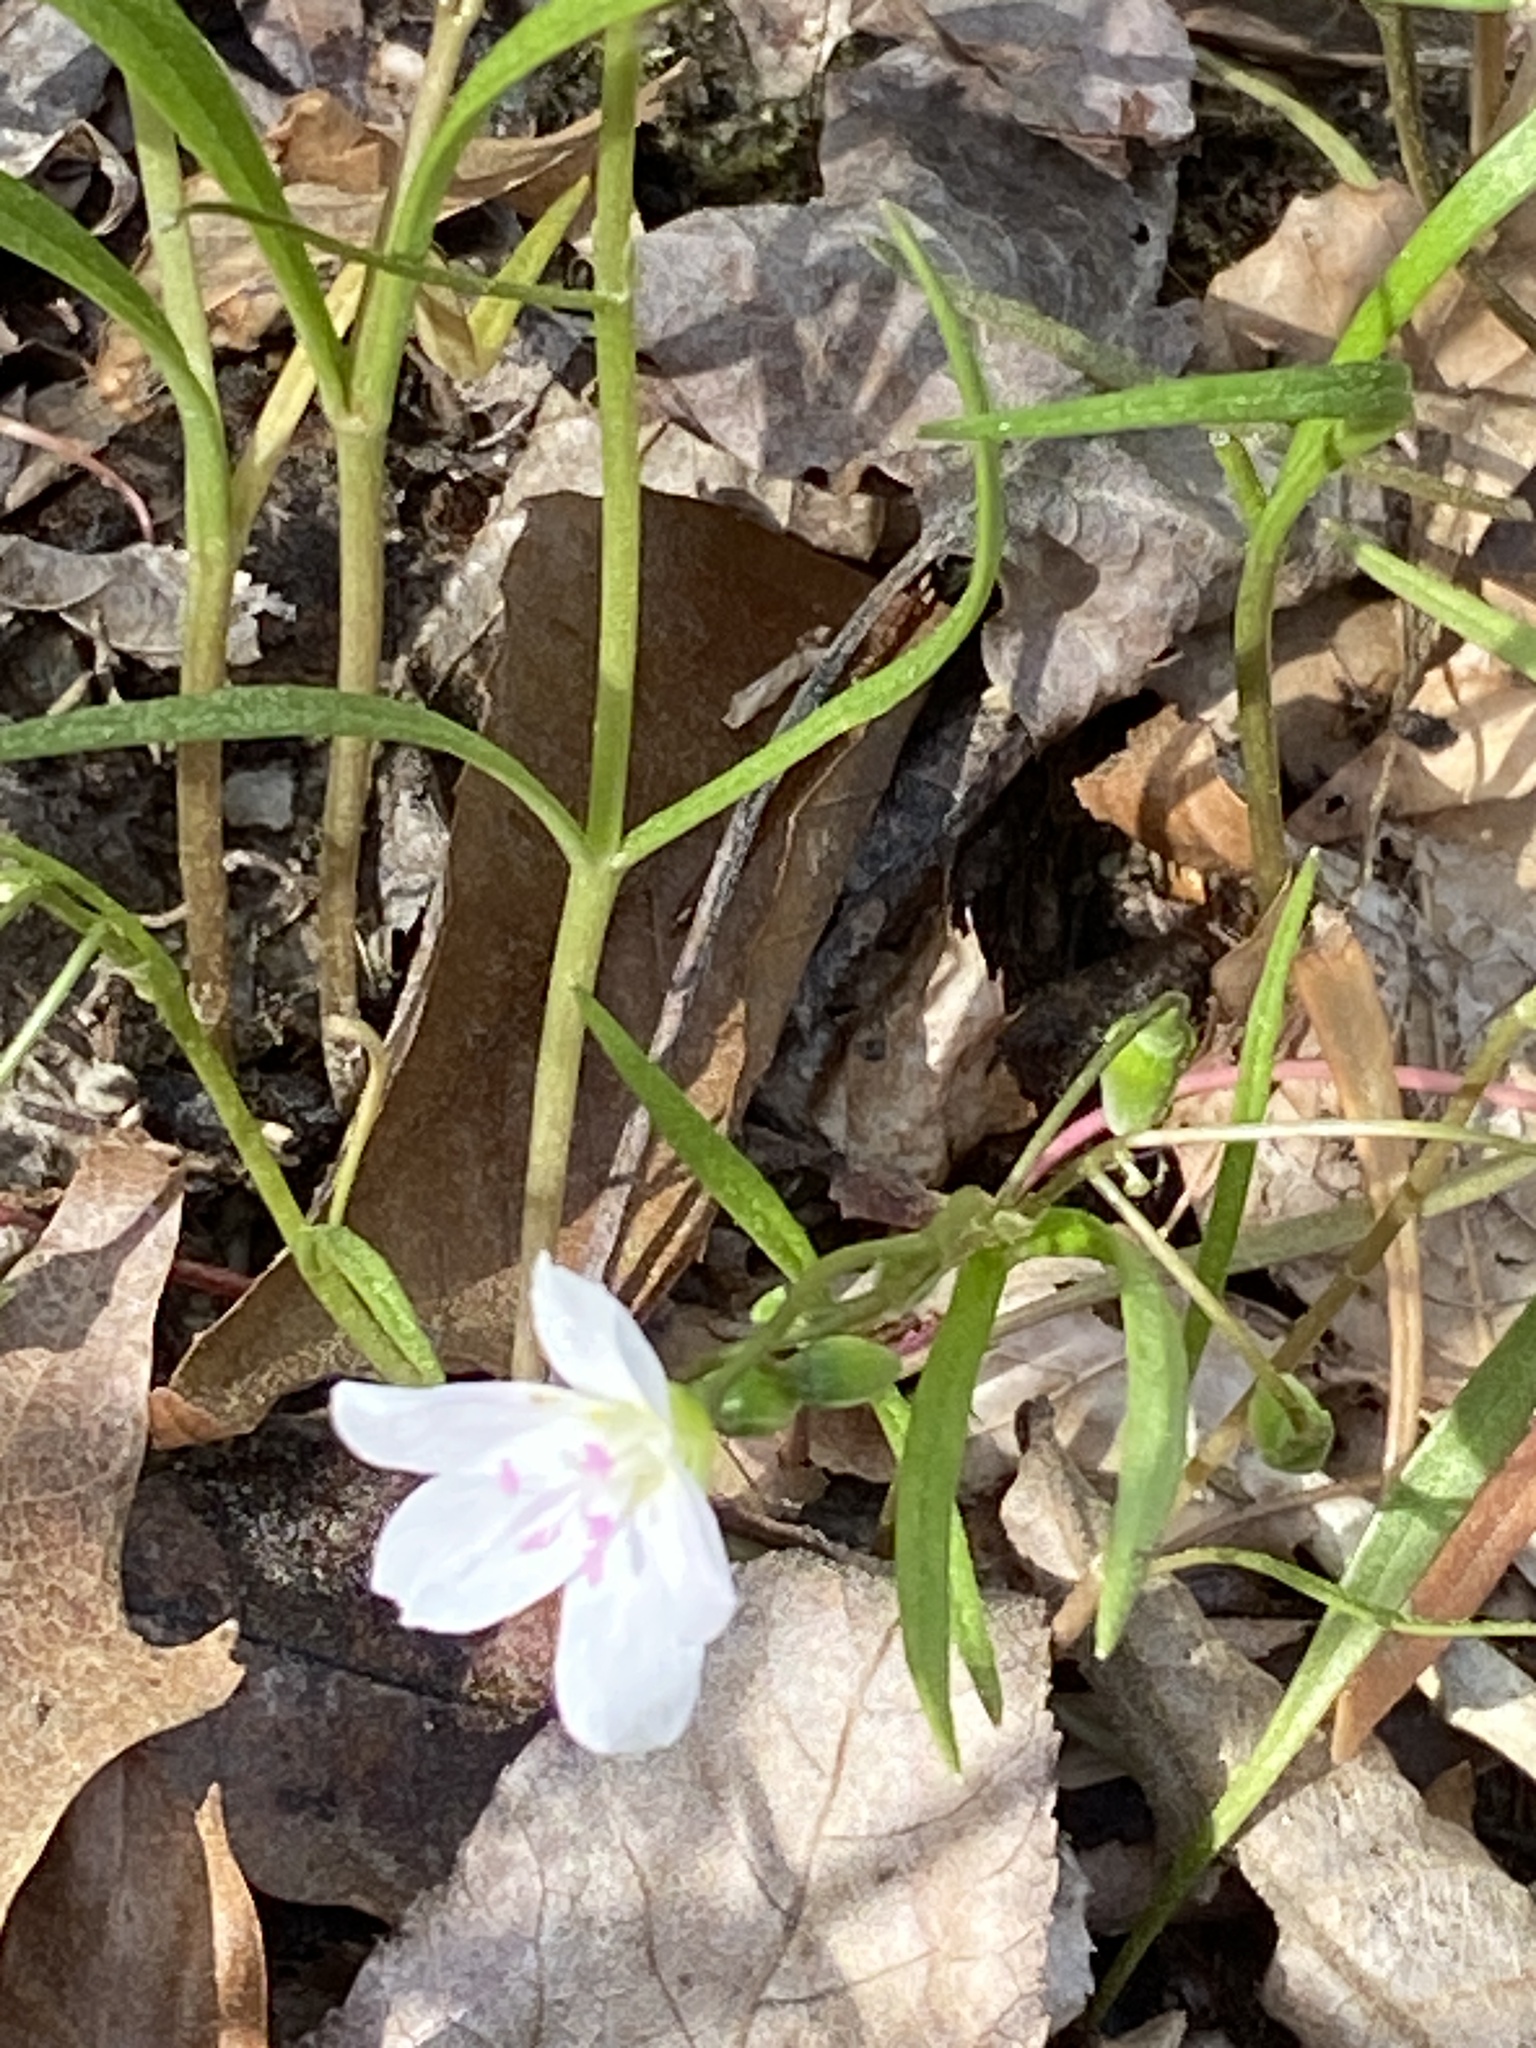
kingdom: Plantae
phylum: Tracheophyta
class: Magnoliopsida
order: Caryophyllales
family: Montiaceae
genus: Claytonia
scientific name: Claytonia virginica
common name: Virginia springbeauty
